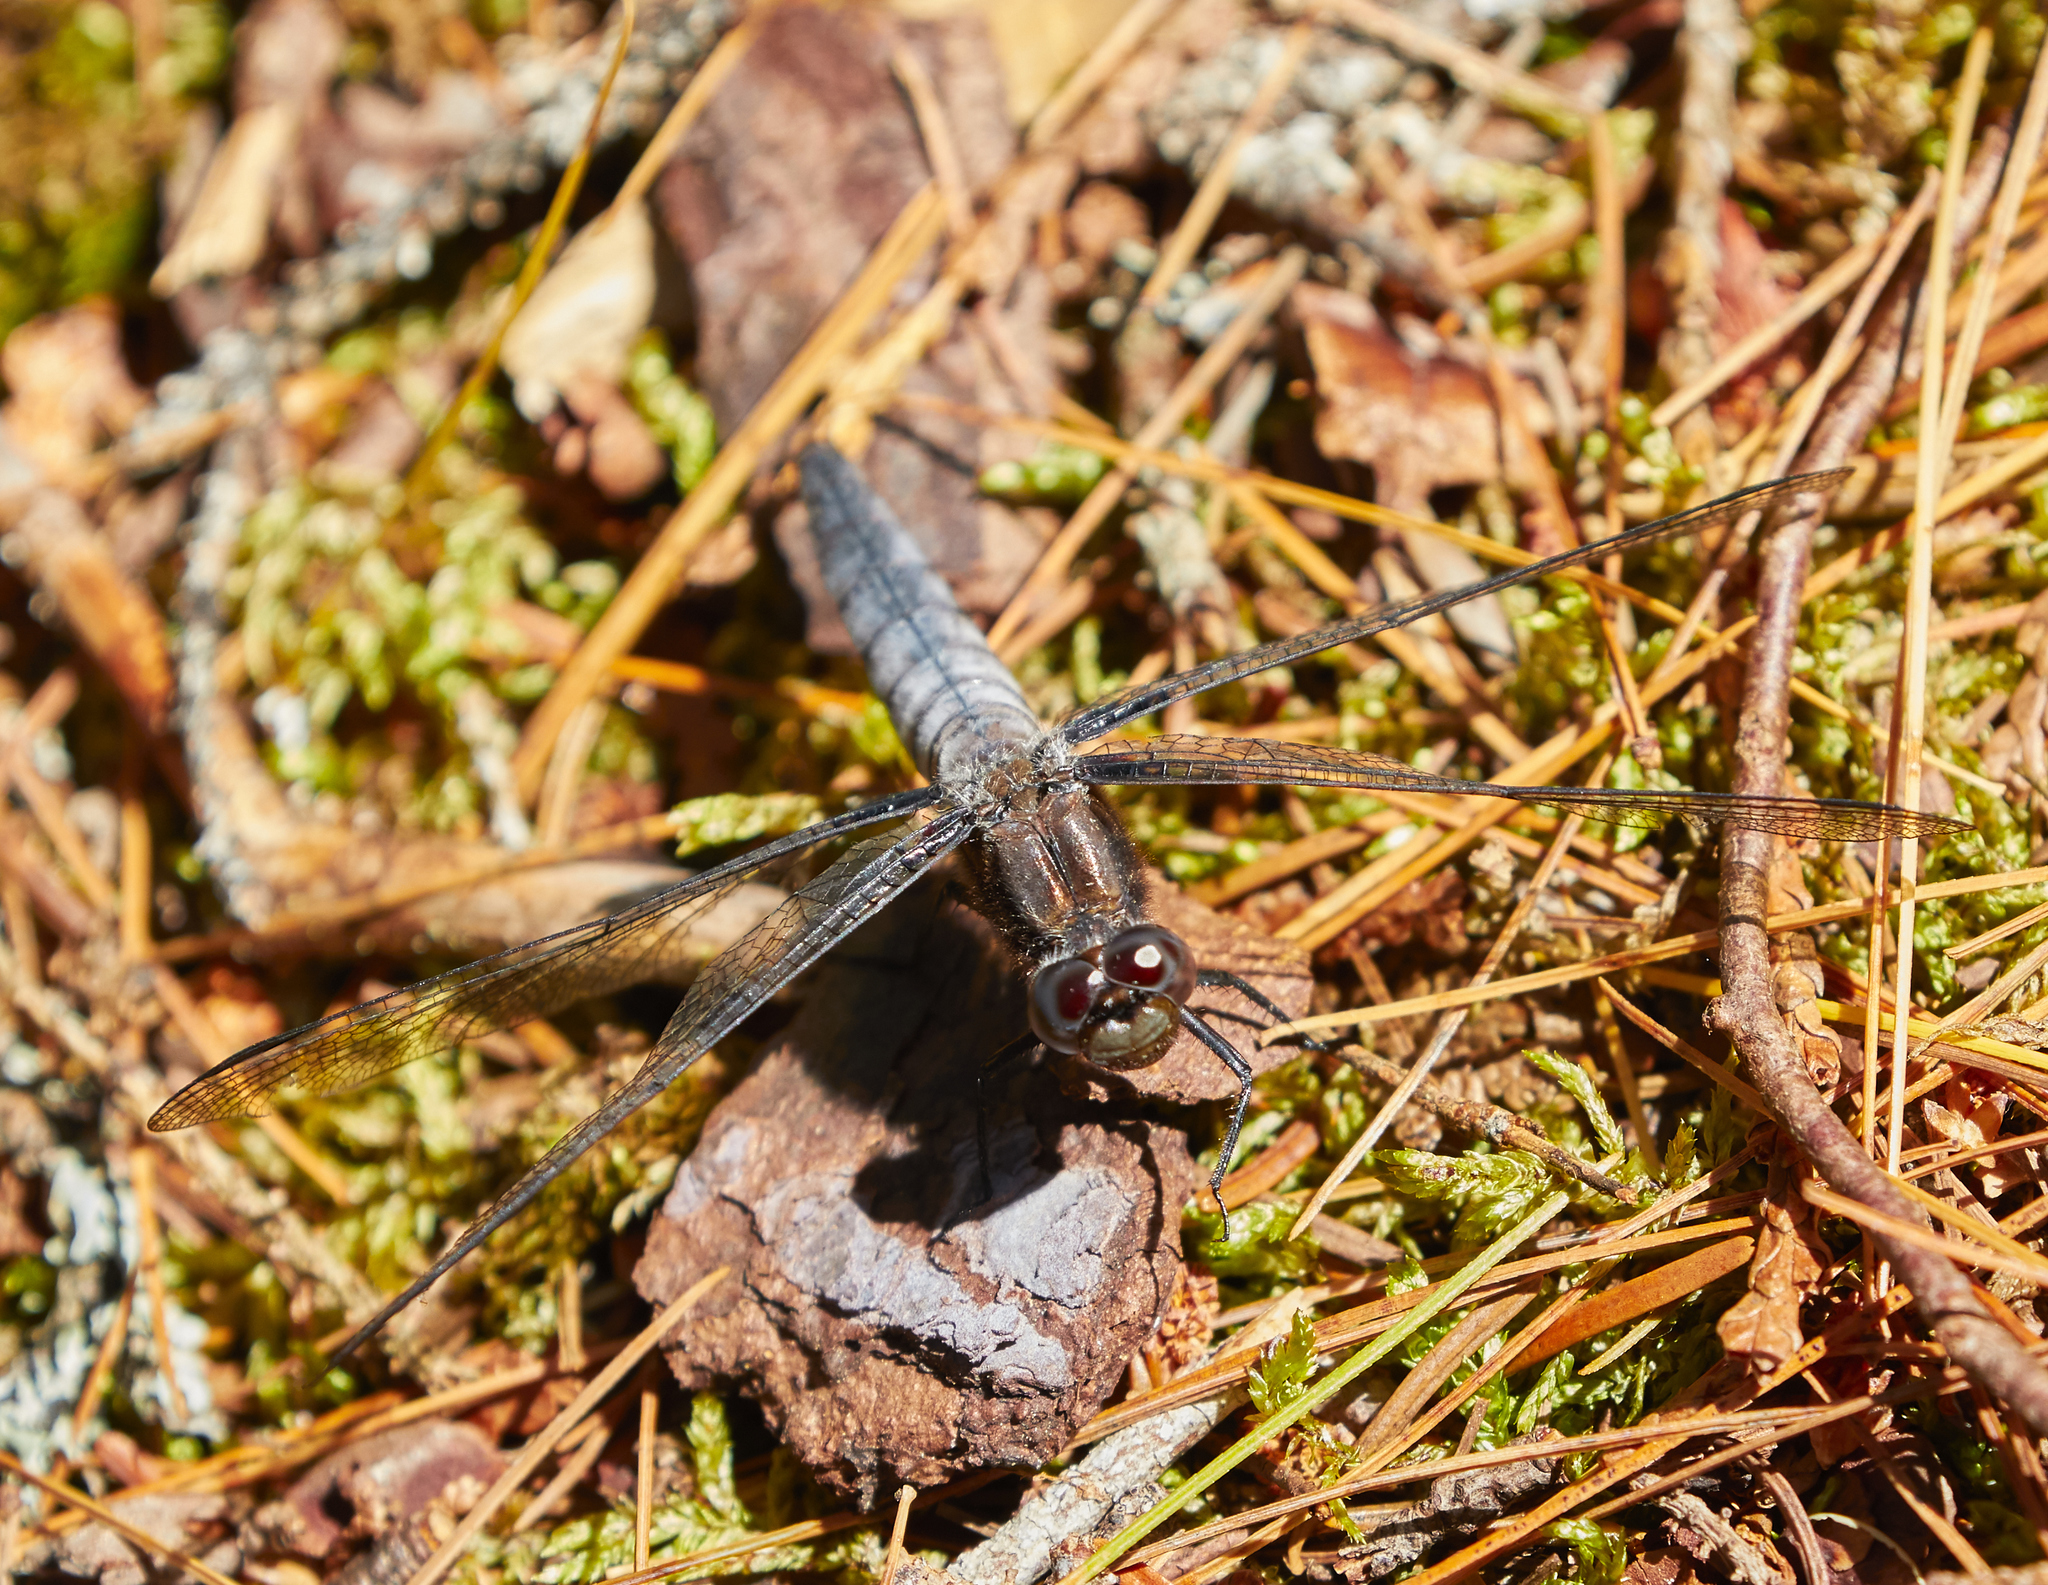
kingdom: Animalia
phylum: Arthropoda
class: Insecta
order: Odonata
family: Libellulidae
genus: Ladona
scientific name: Ladona julia
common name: Chalk-fronted corporal
